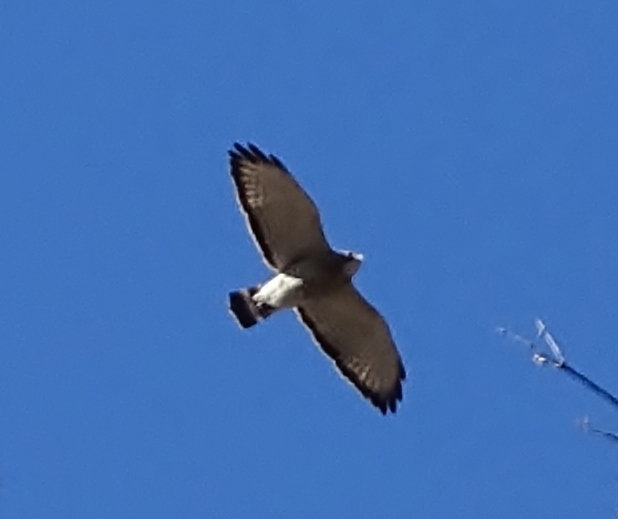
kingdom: Animalia
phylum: Chordata
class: Aves
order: Accipitriformes
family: Accipitridae
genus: Buteo
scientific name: Buteo platypterus
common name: Broad-winged hawk
